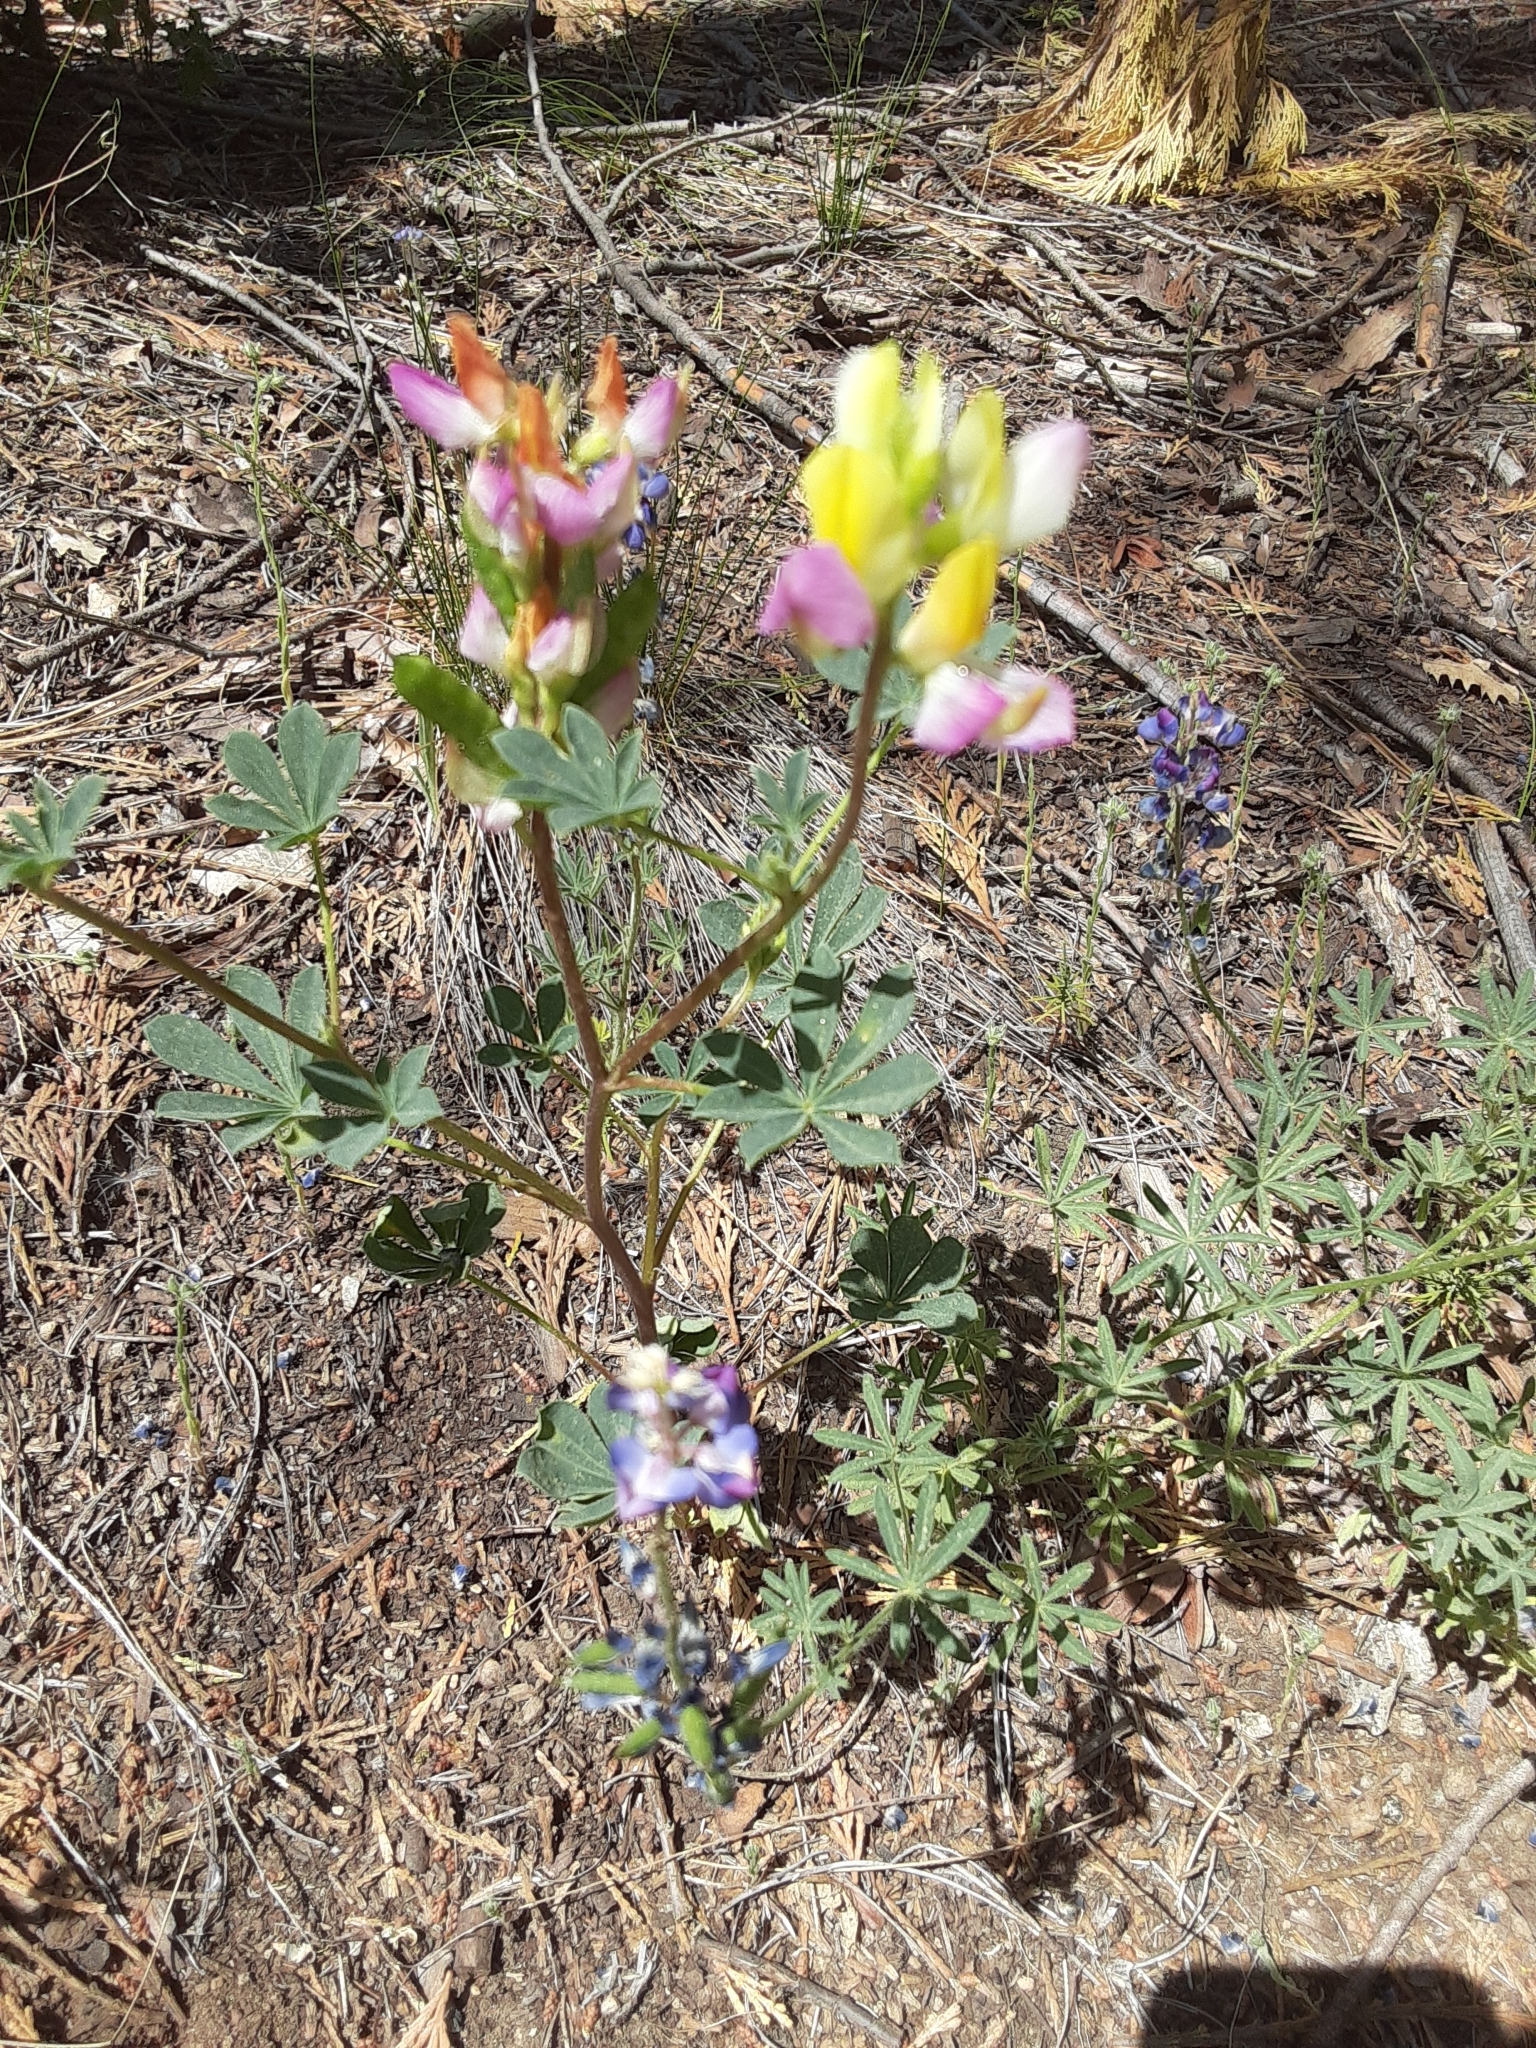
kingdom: Plantae
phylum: Tracheophyta
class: Magnoliopsida
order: Fabales
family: Fabaceae
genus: Lupinus
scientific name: Lupinus stiversii
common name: Harlequin lupine
